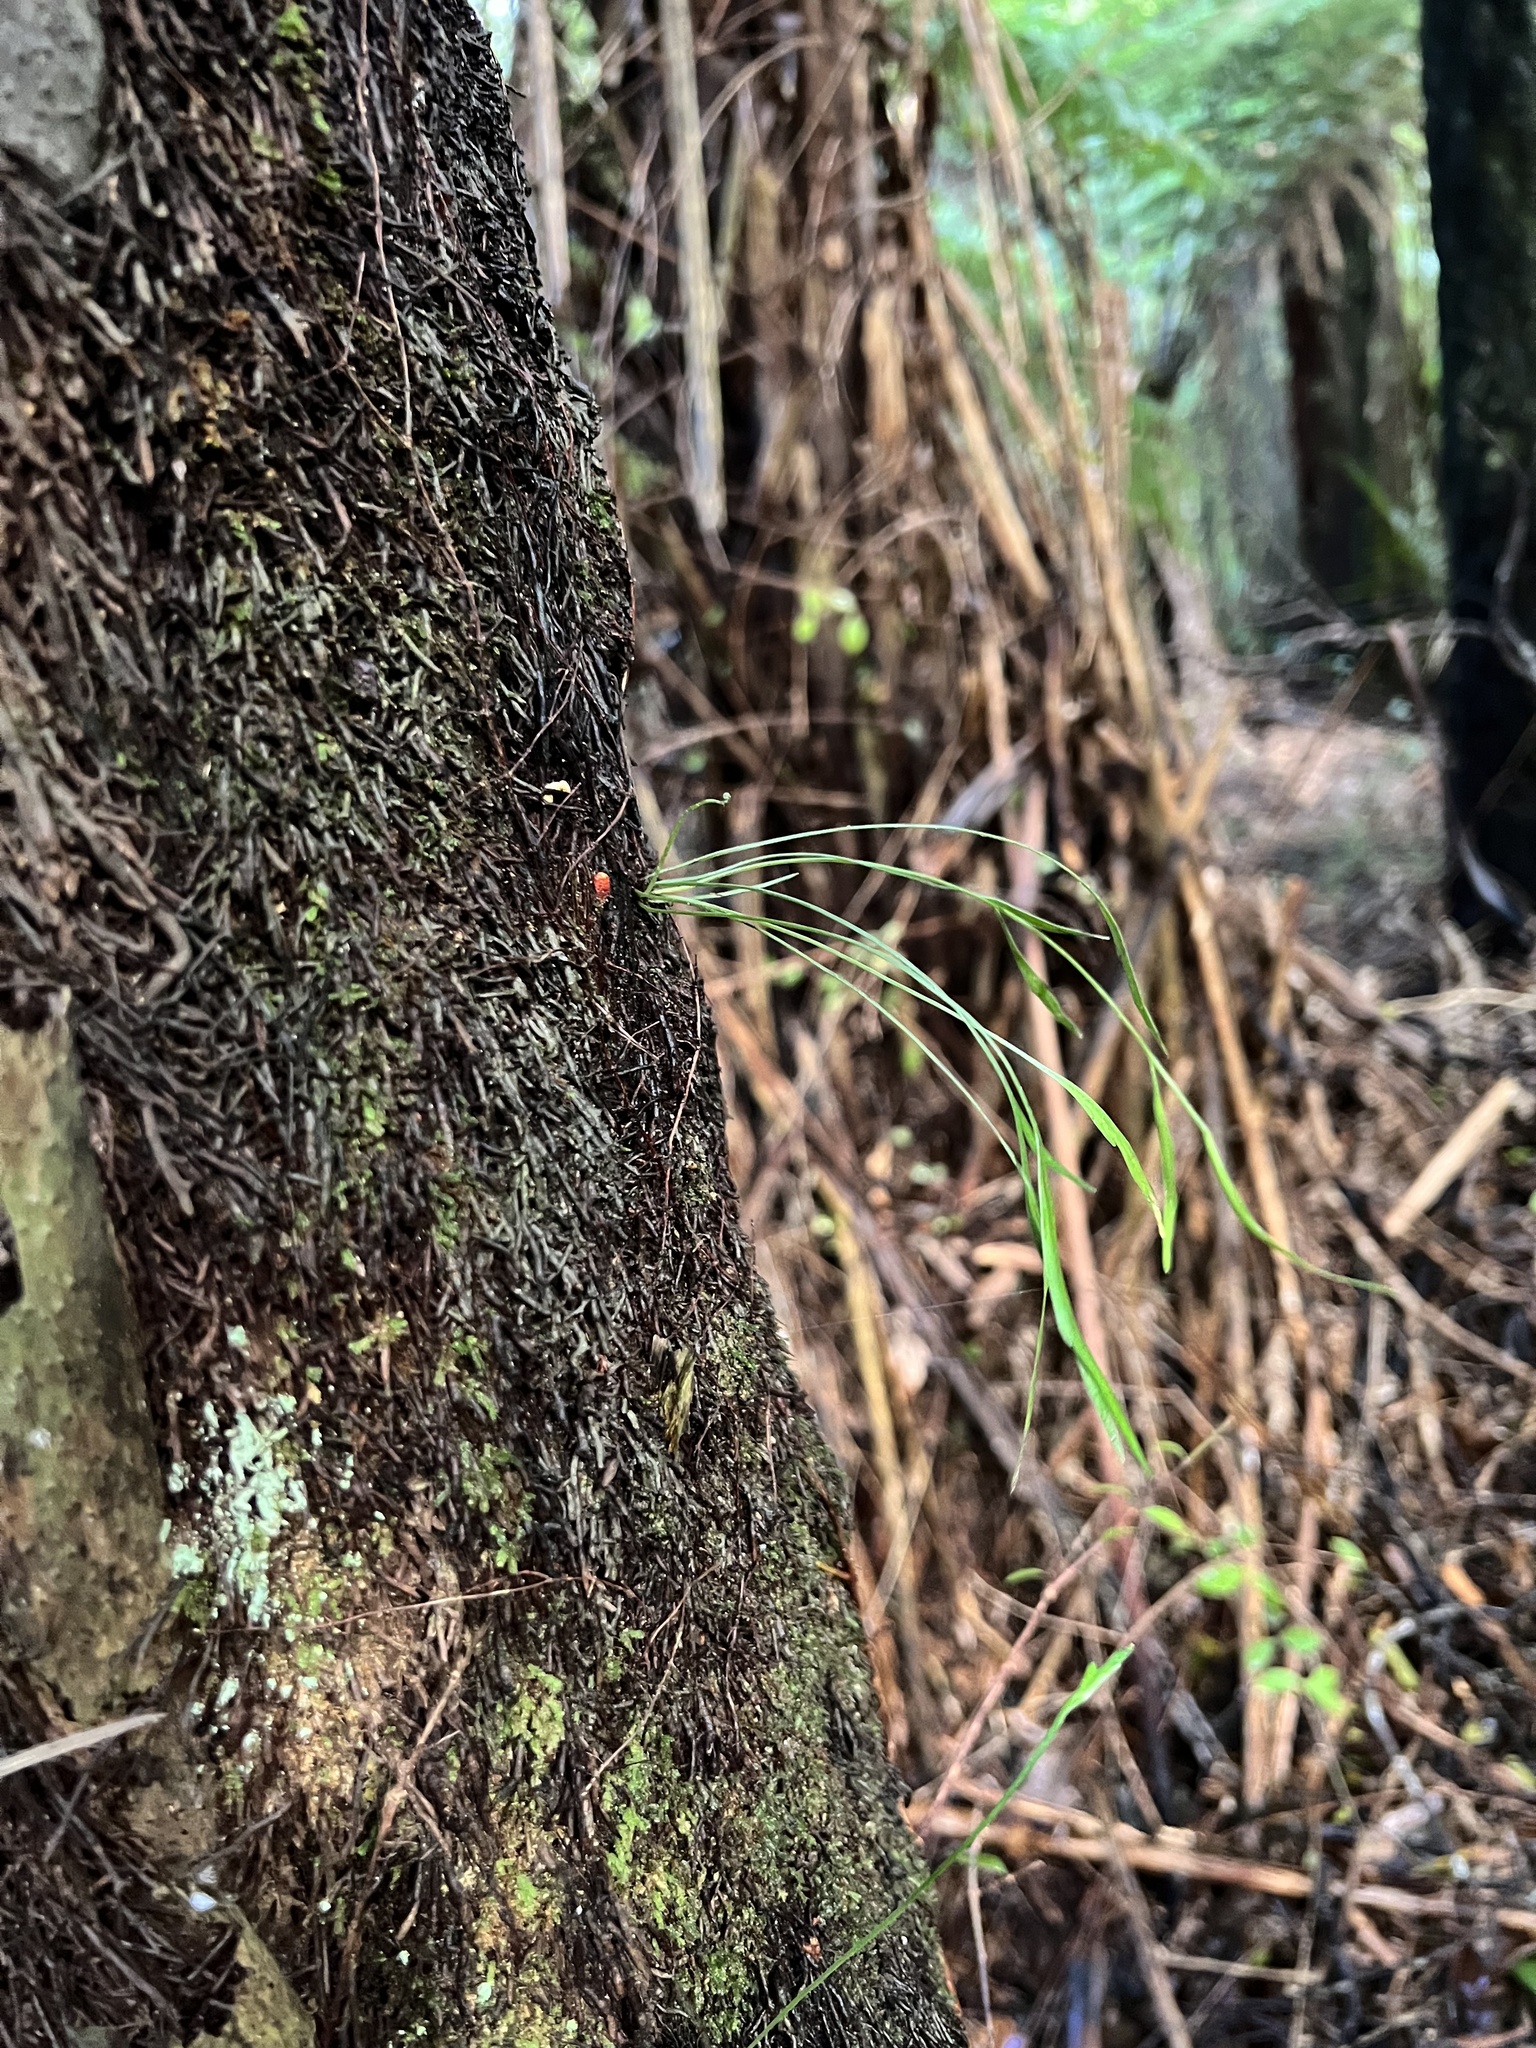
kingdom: Plantae
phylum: Tracheophyta
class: Polypodiopsida
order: Polypodiales
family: Aspleniaceae
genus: Asplenium
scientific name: Asplenium flaccidum
